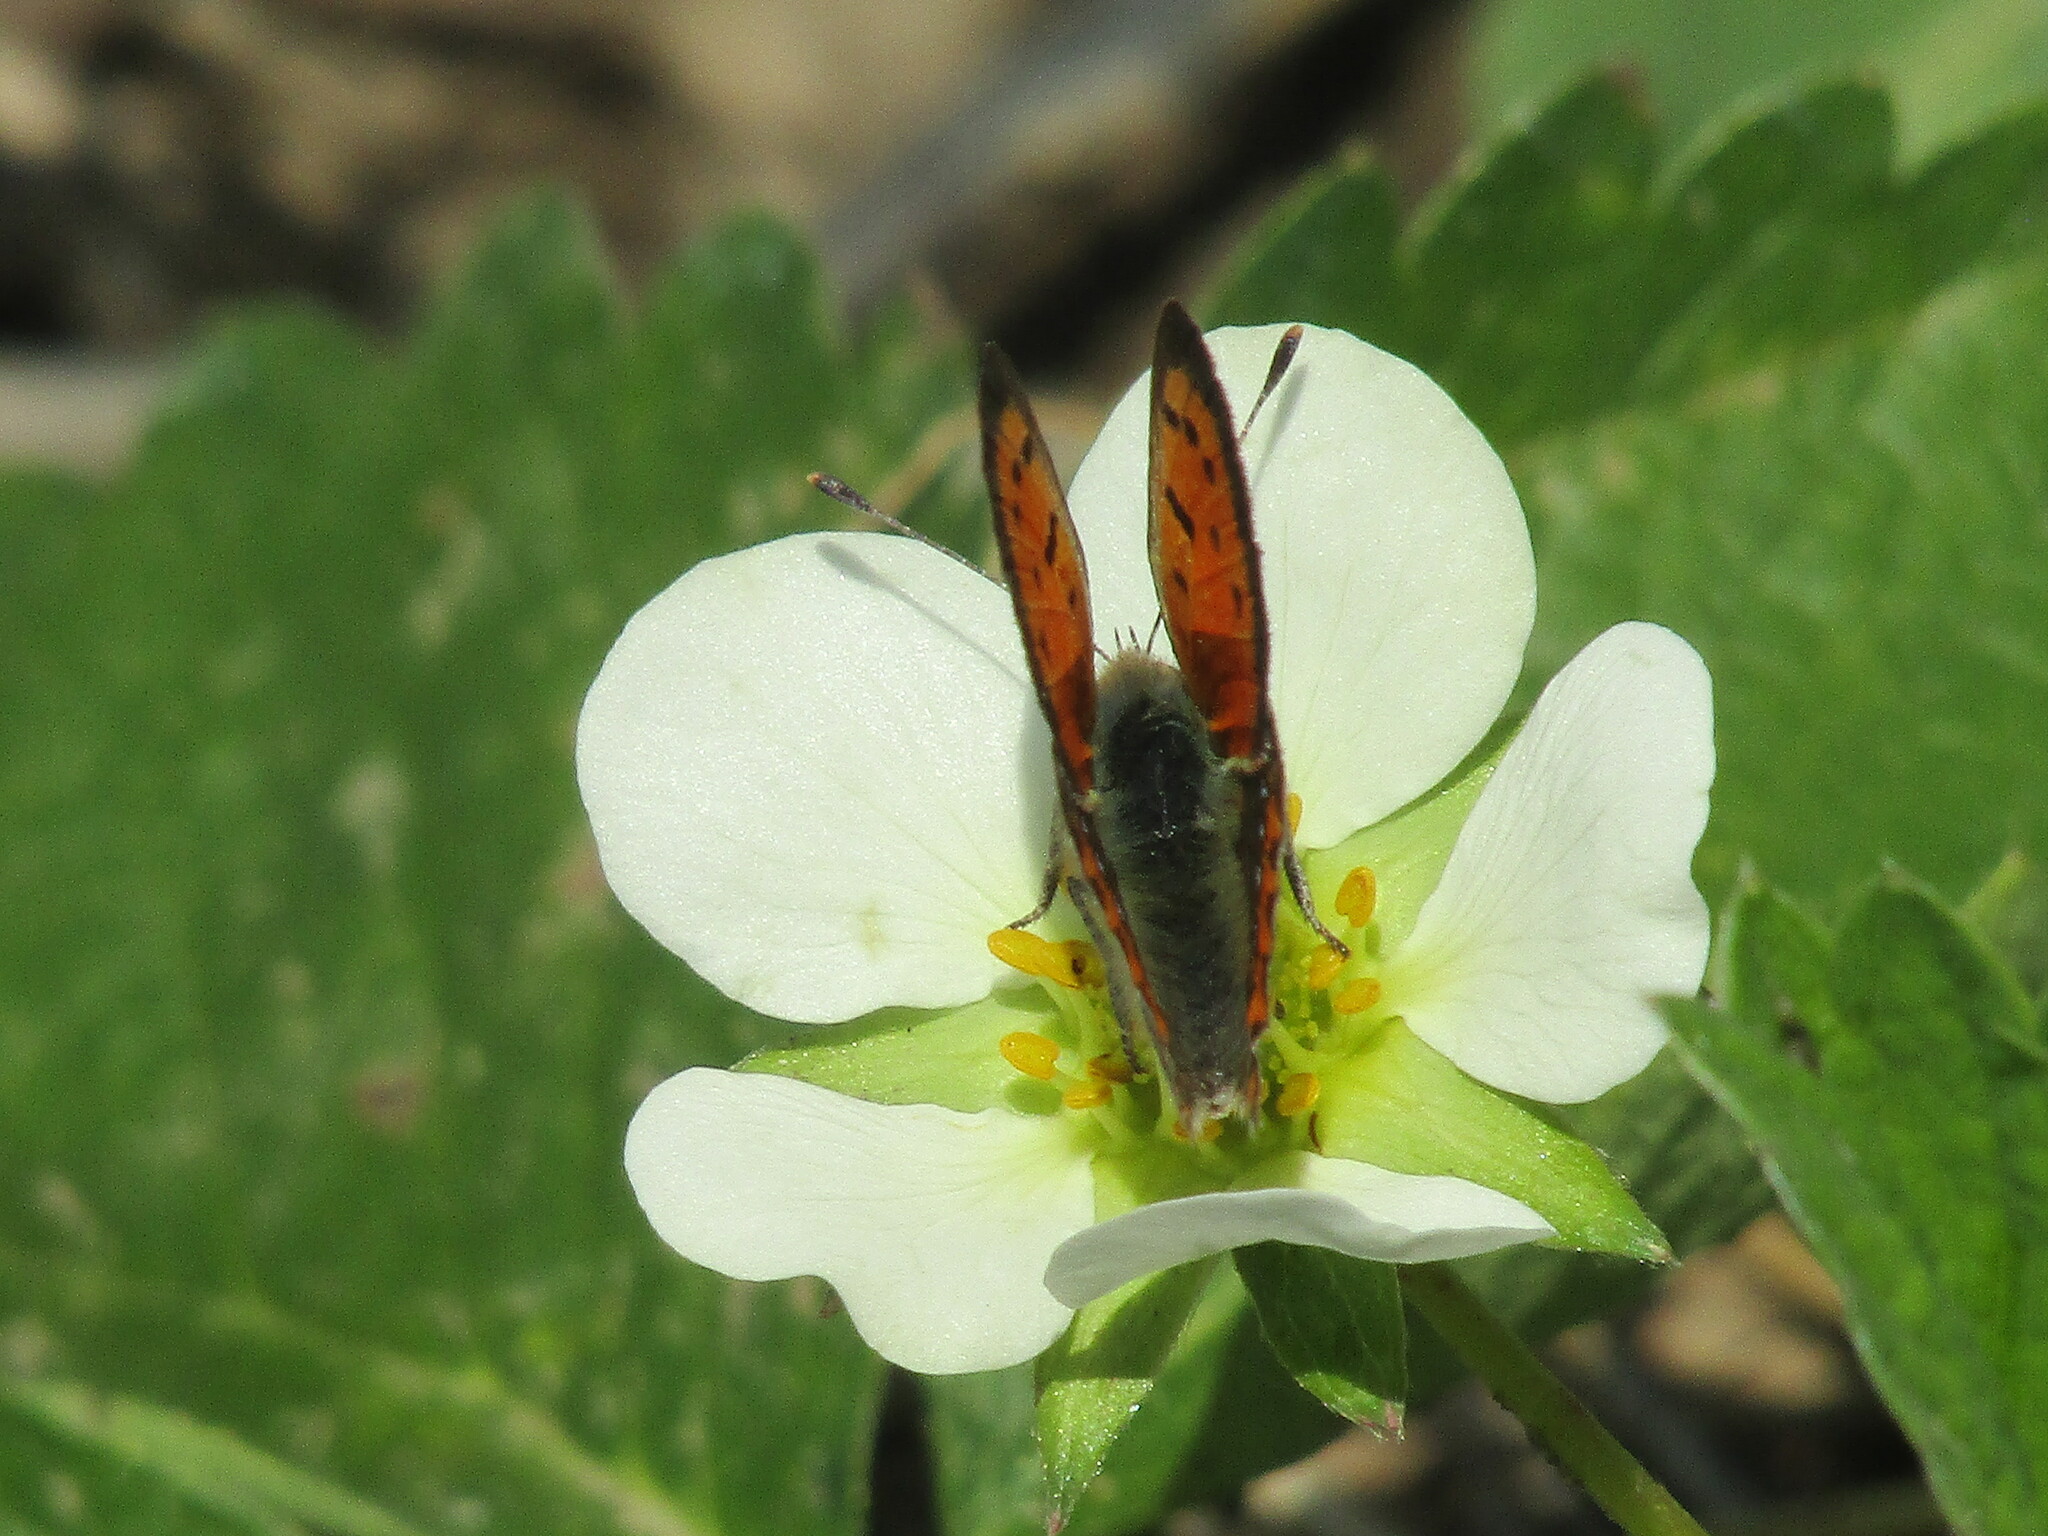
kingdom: Animalia
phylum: Arthropoda
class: Insecta
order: Lepidoptera
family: Lycaenidae
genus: Lycaena
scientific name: Lycaena phlaeas
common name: Small copper
